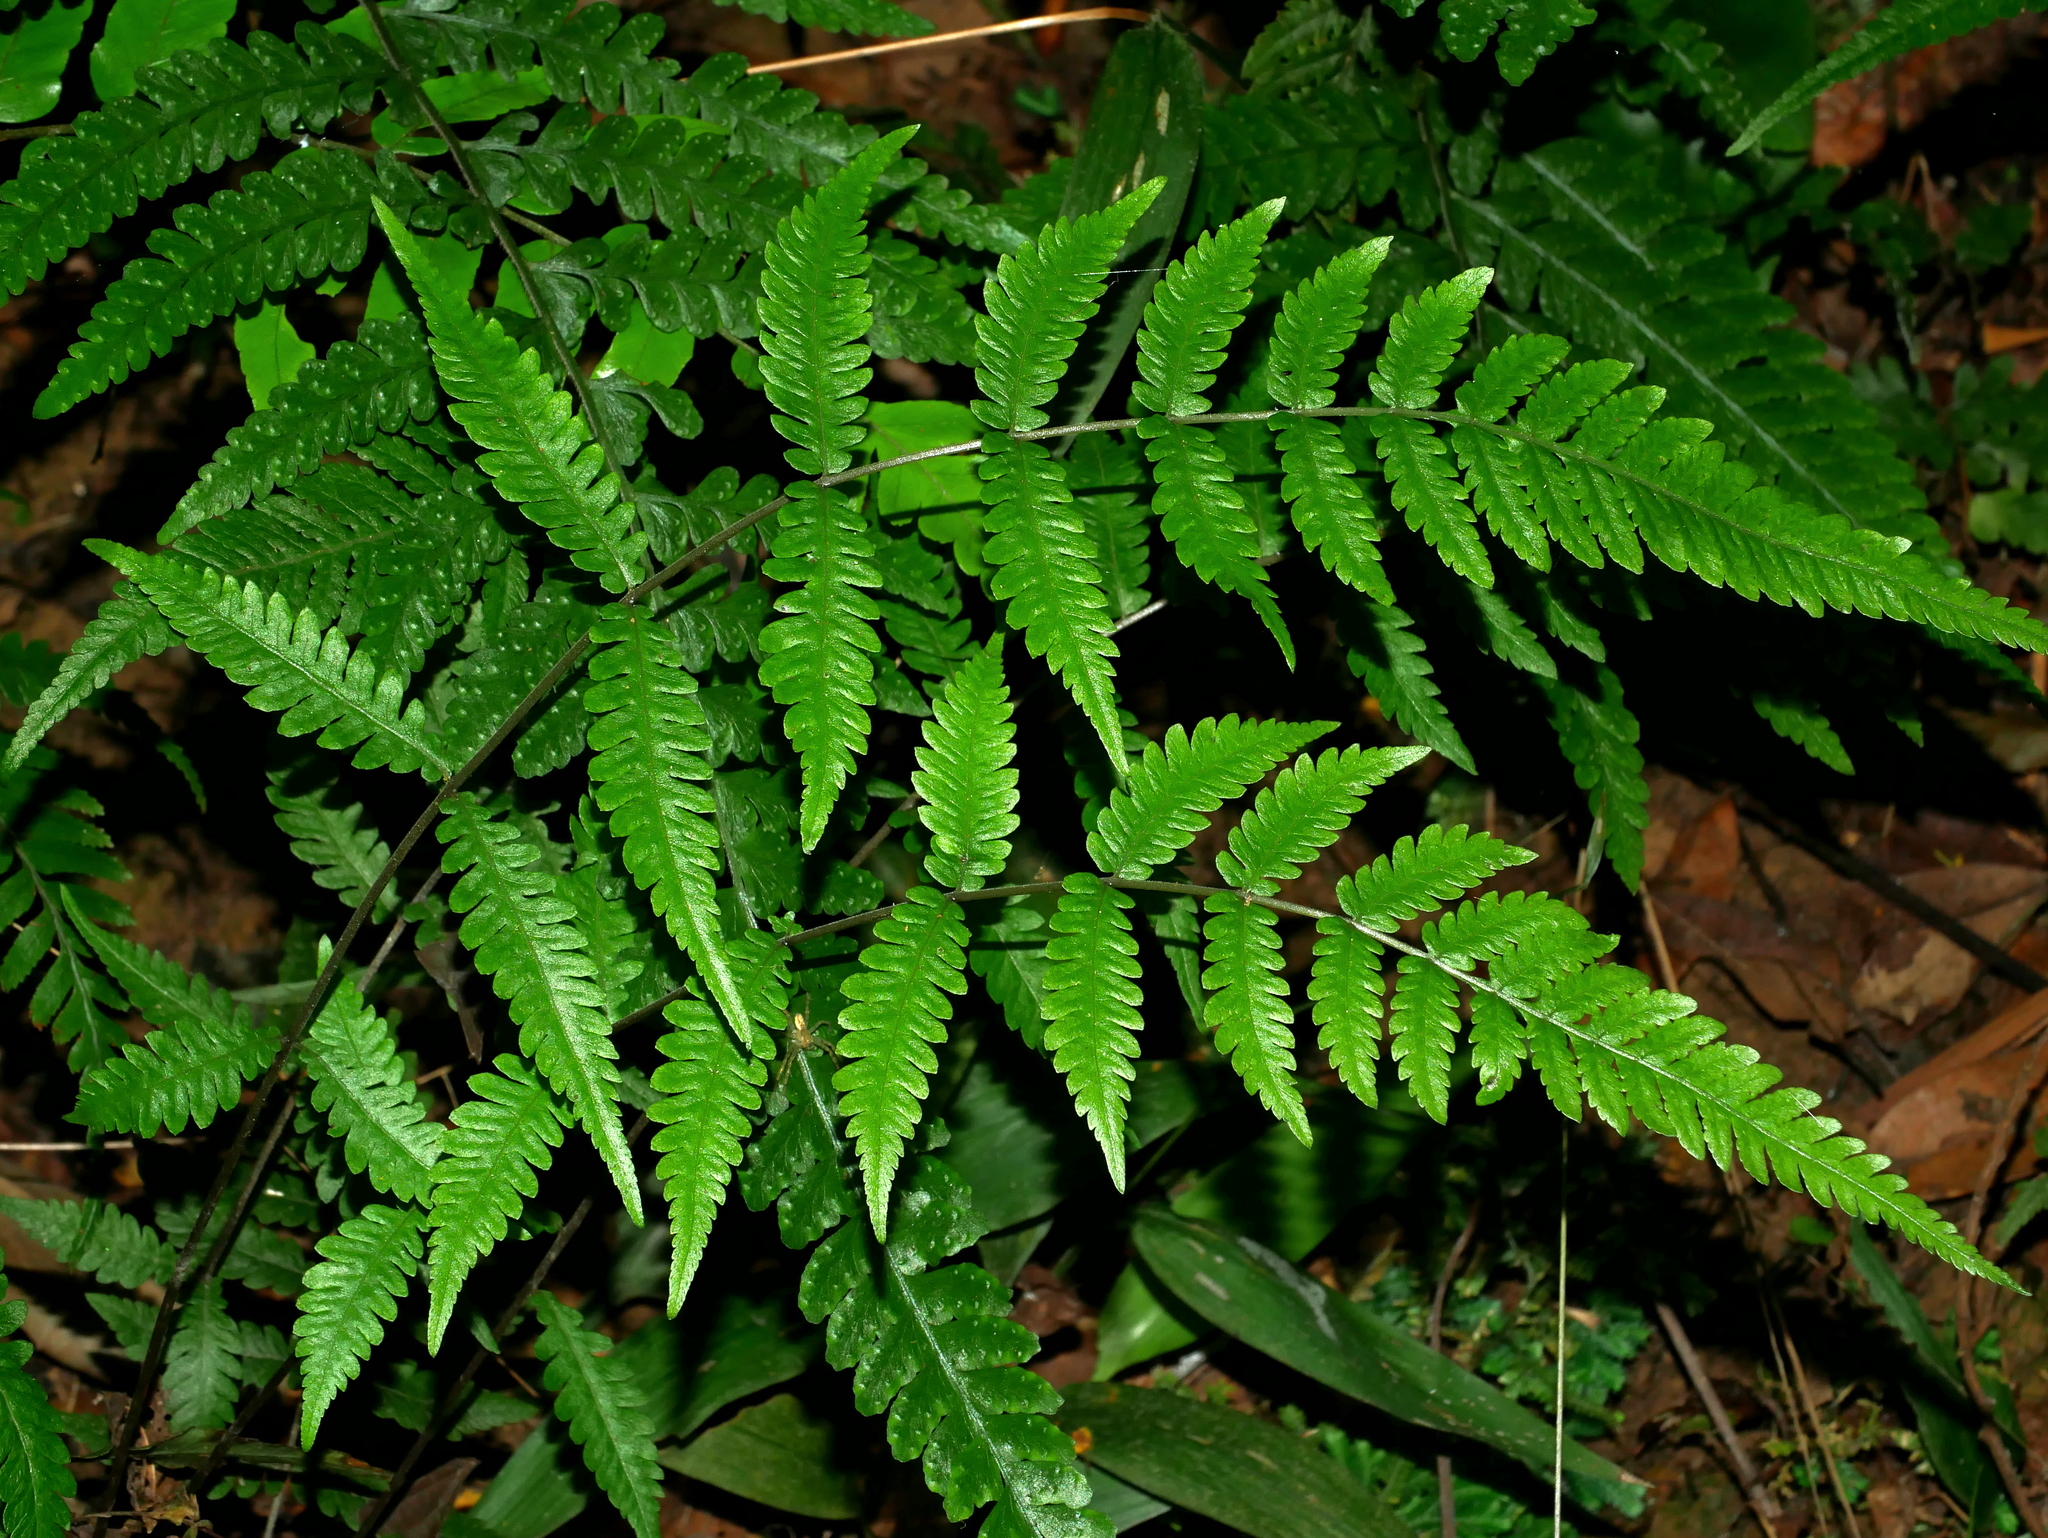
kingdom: Plantae
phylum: Tracheophyta
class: Polypodiopsida
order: Polypodiales
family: Thelypteridaceae
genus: Metathelypteris
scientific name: Metathelypteris adscendens
